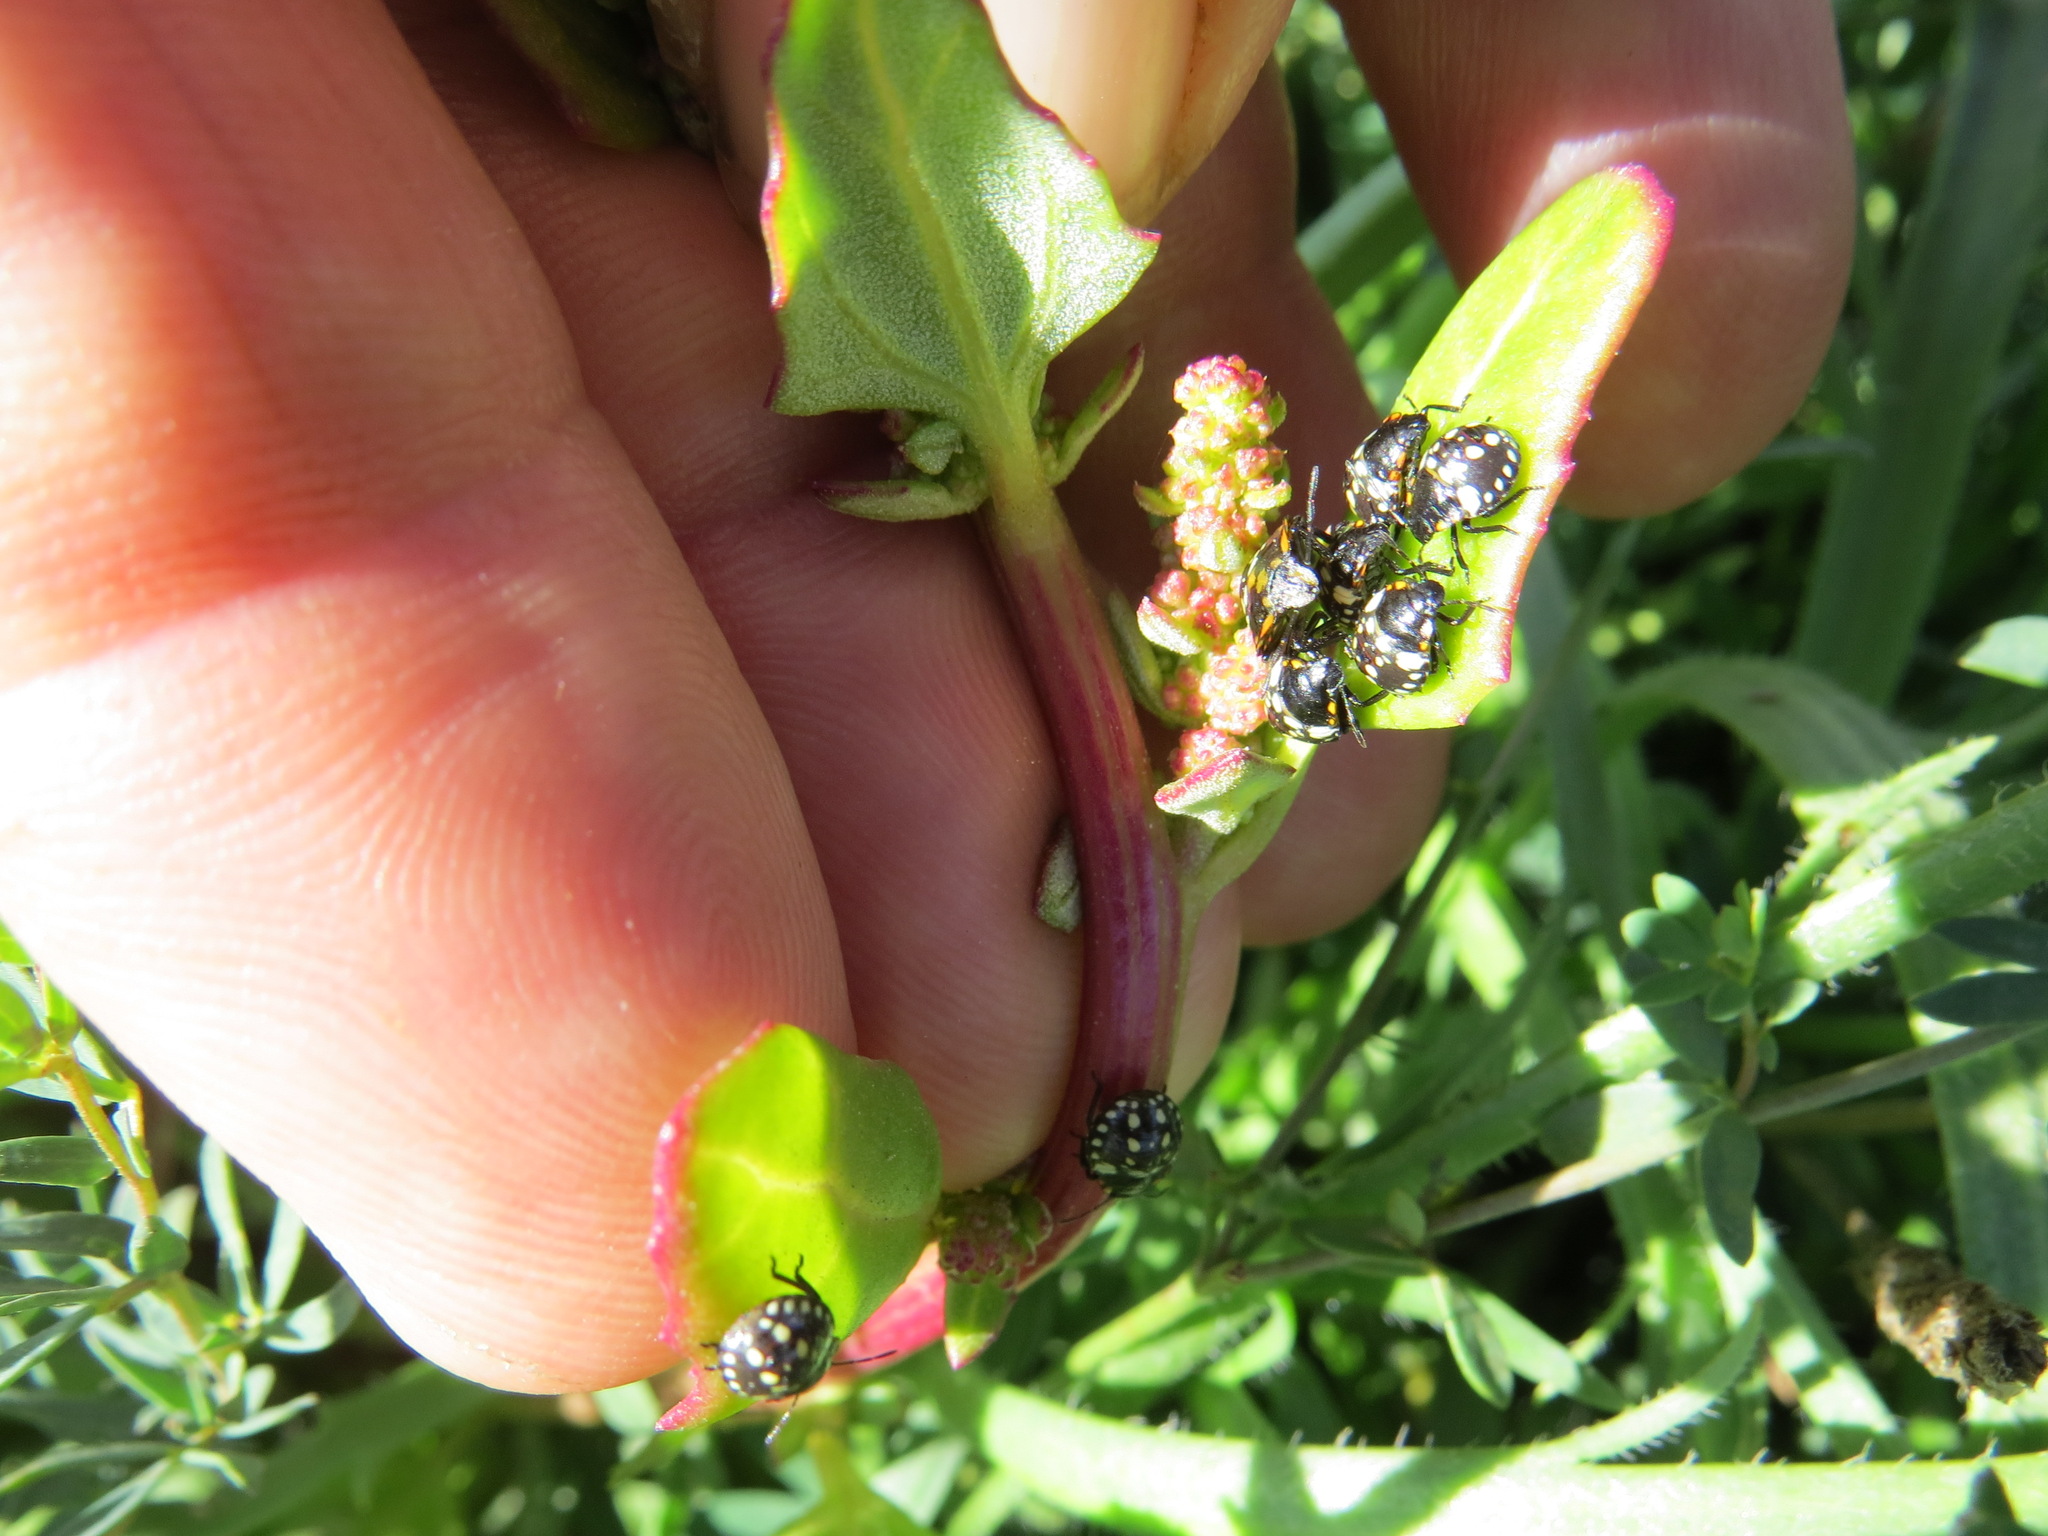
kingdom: Animalia
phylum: Arthropoda
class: Insecta
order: Hemiptera
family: Pentatomidae
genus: Nezara
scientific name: Nezara viridula
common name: Southern green stink bug
